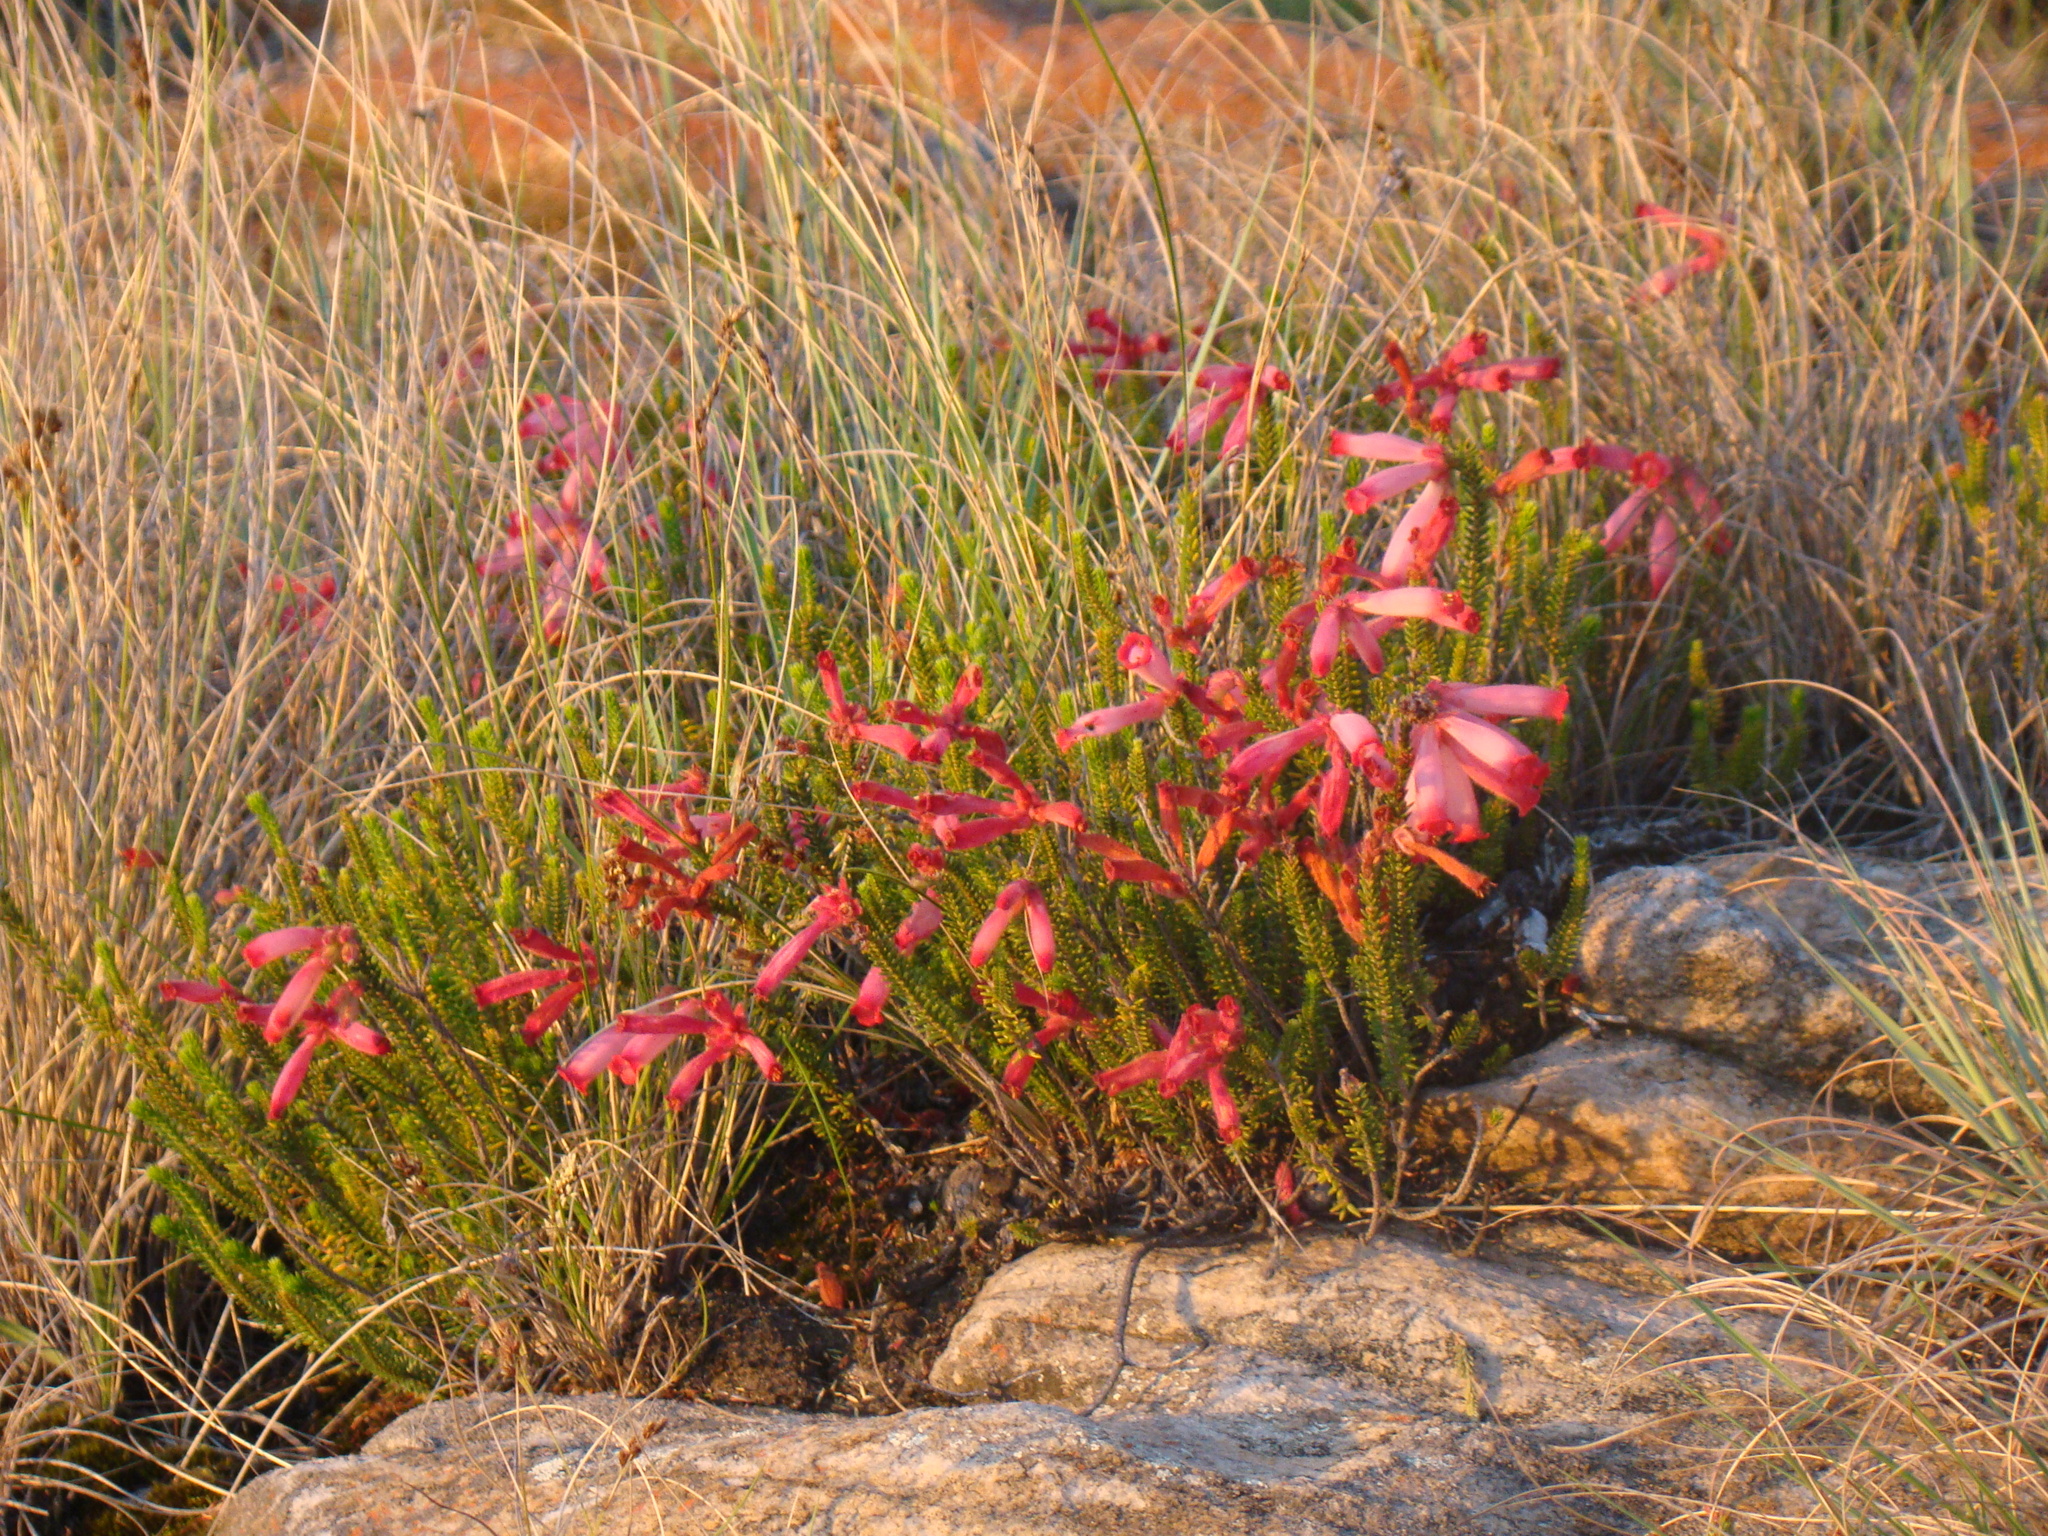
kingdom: Plantae
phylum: Tracheophyta
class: Magnoliopsida
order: Ericales
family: Ericaceae
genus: Erica
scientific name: Erica cerinthoides
